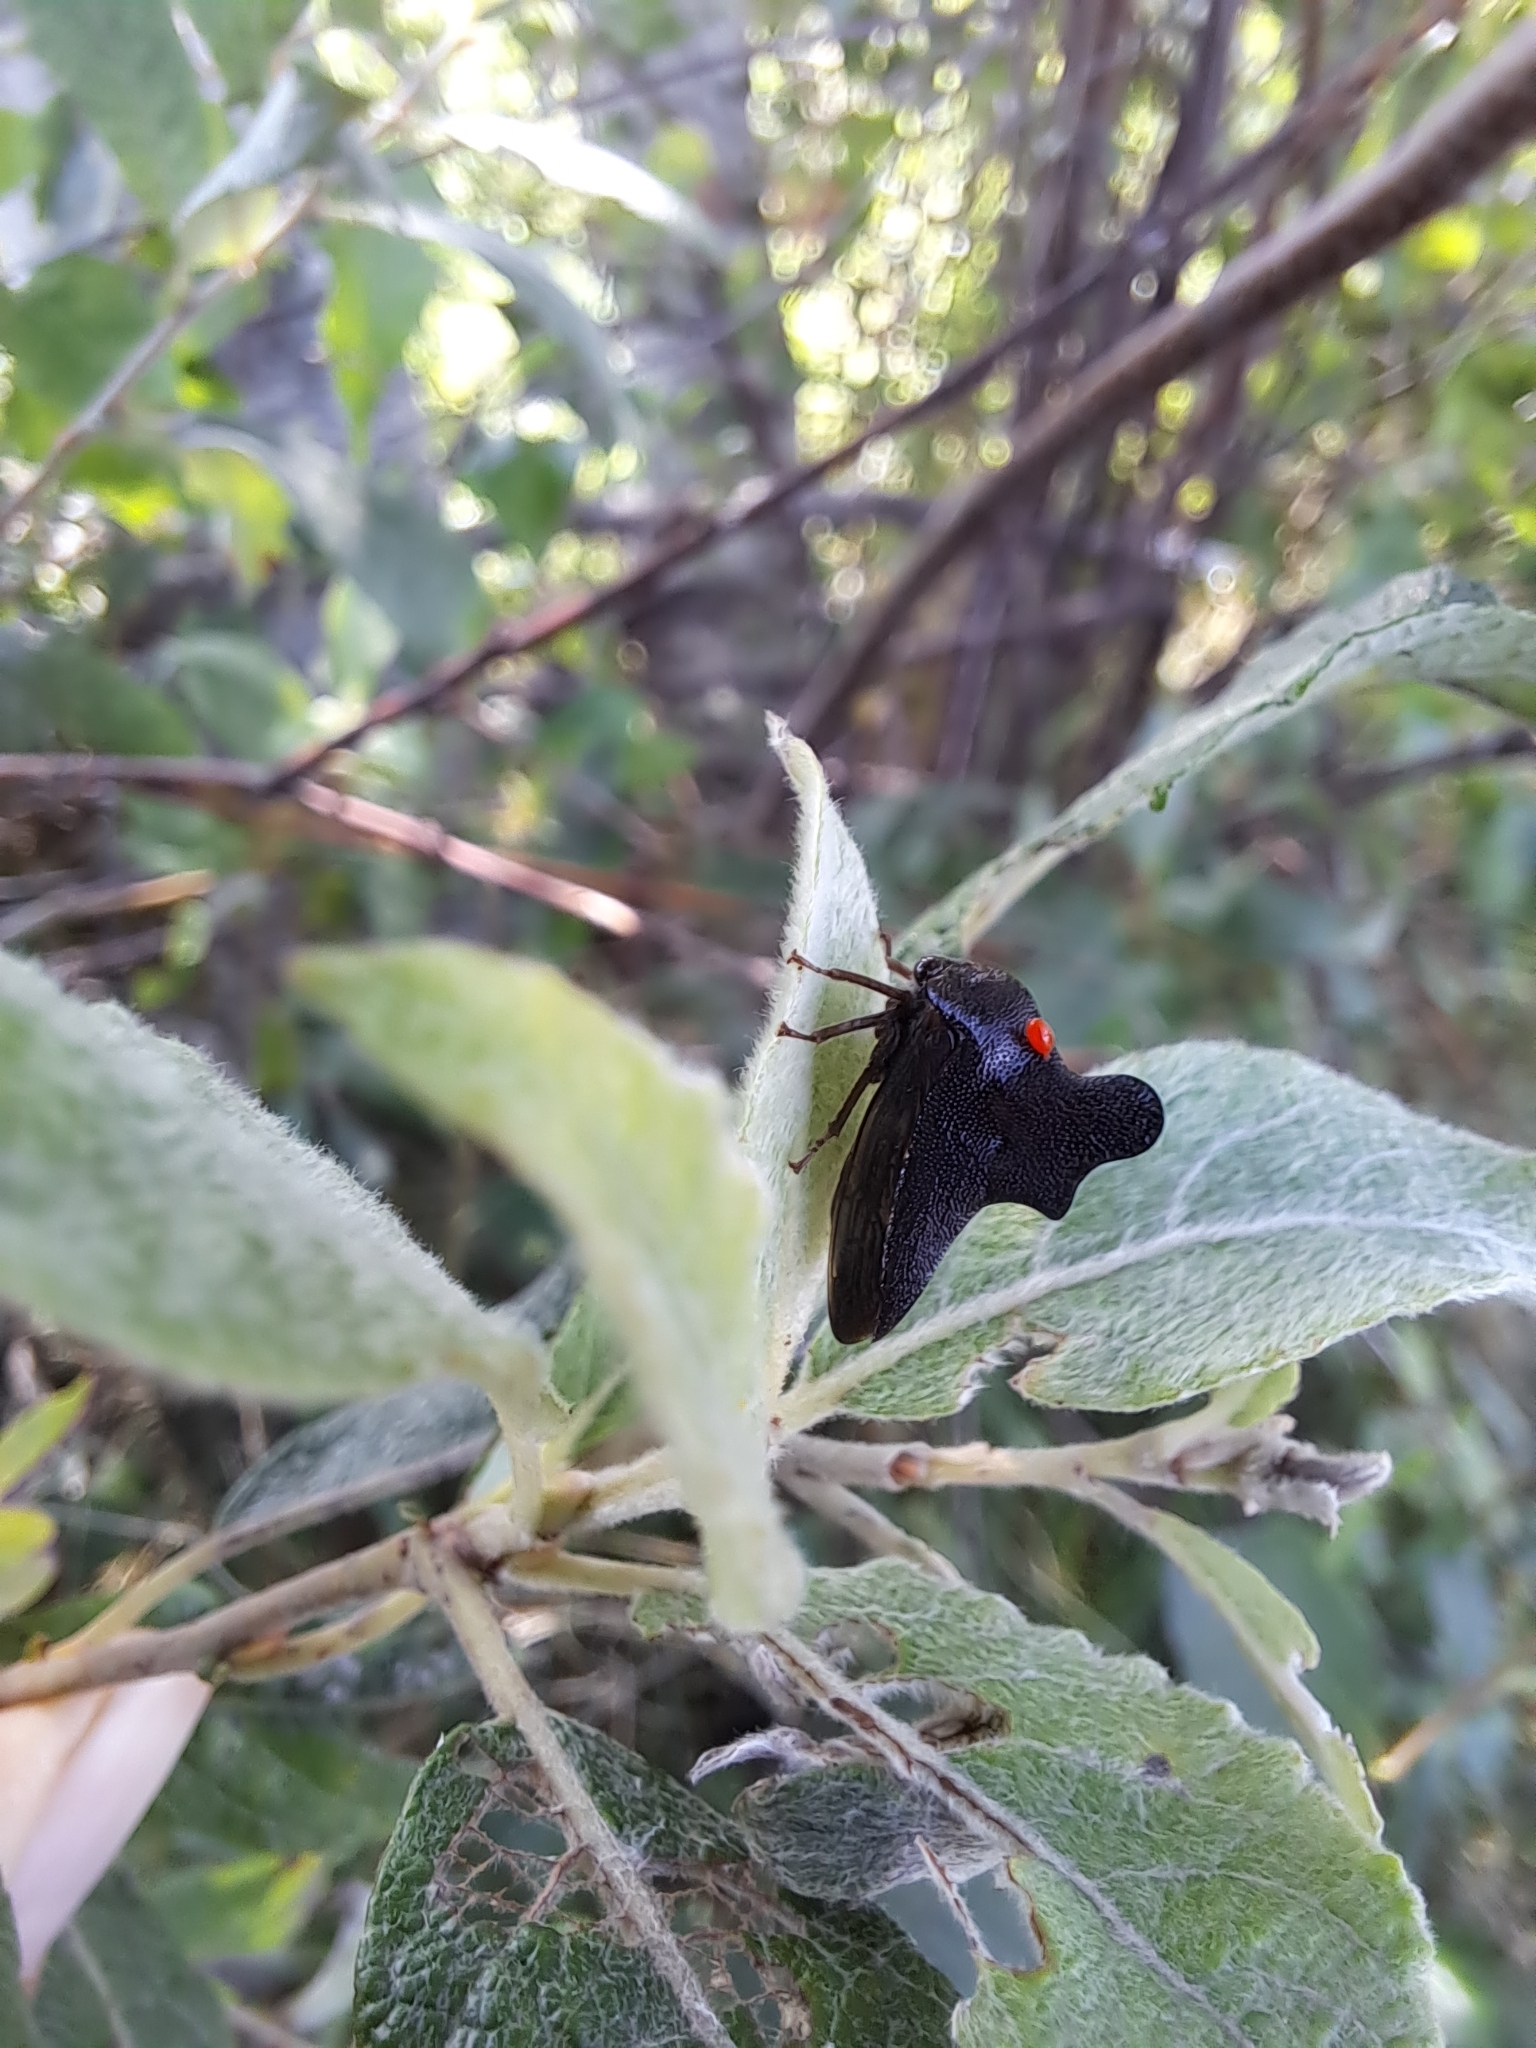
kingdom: Animalia
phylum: Arthropoda
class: Insecta
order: Hemiptera
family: Membracidae
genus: Heliria
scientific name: Heliria scalaris
